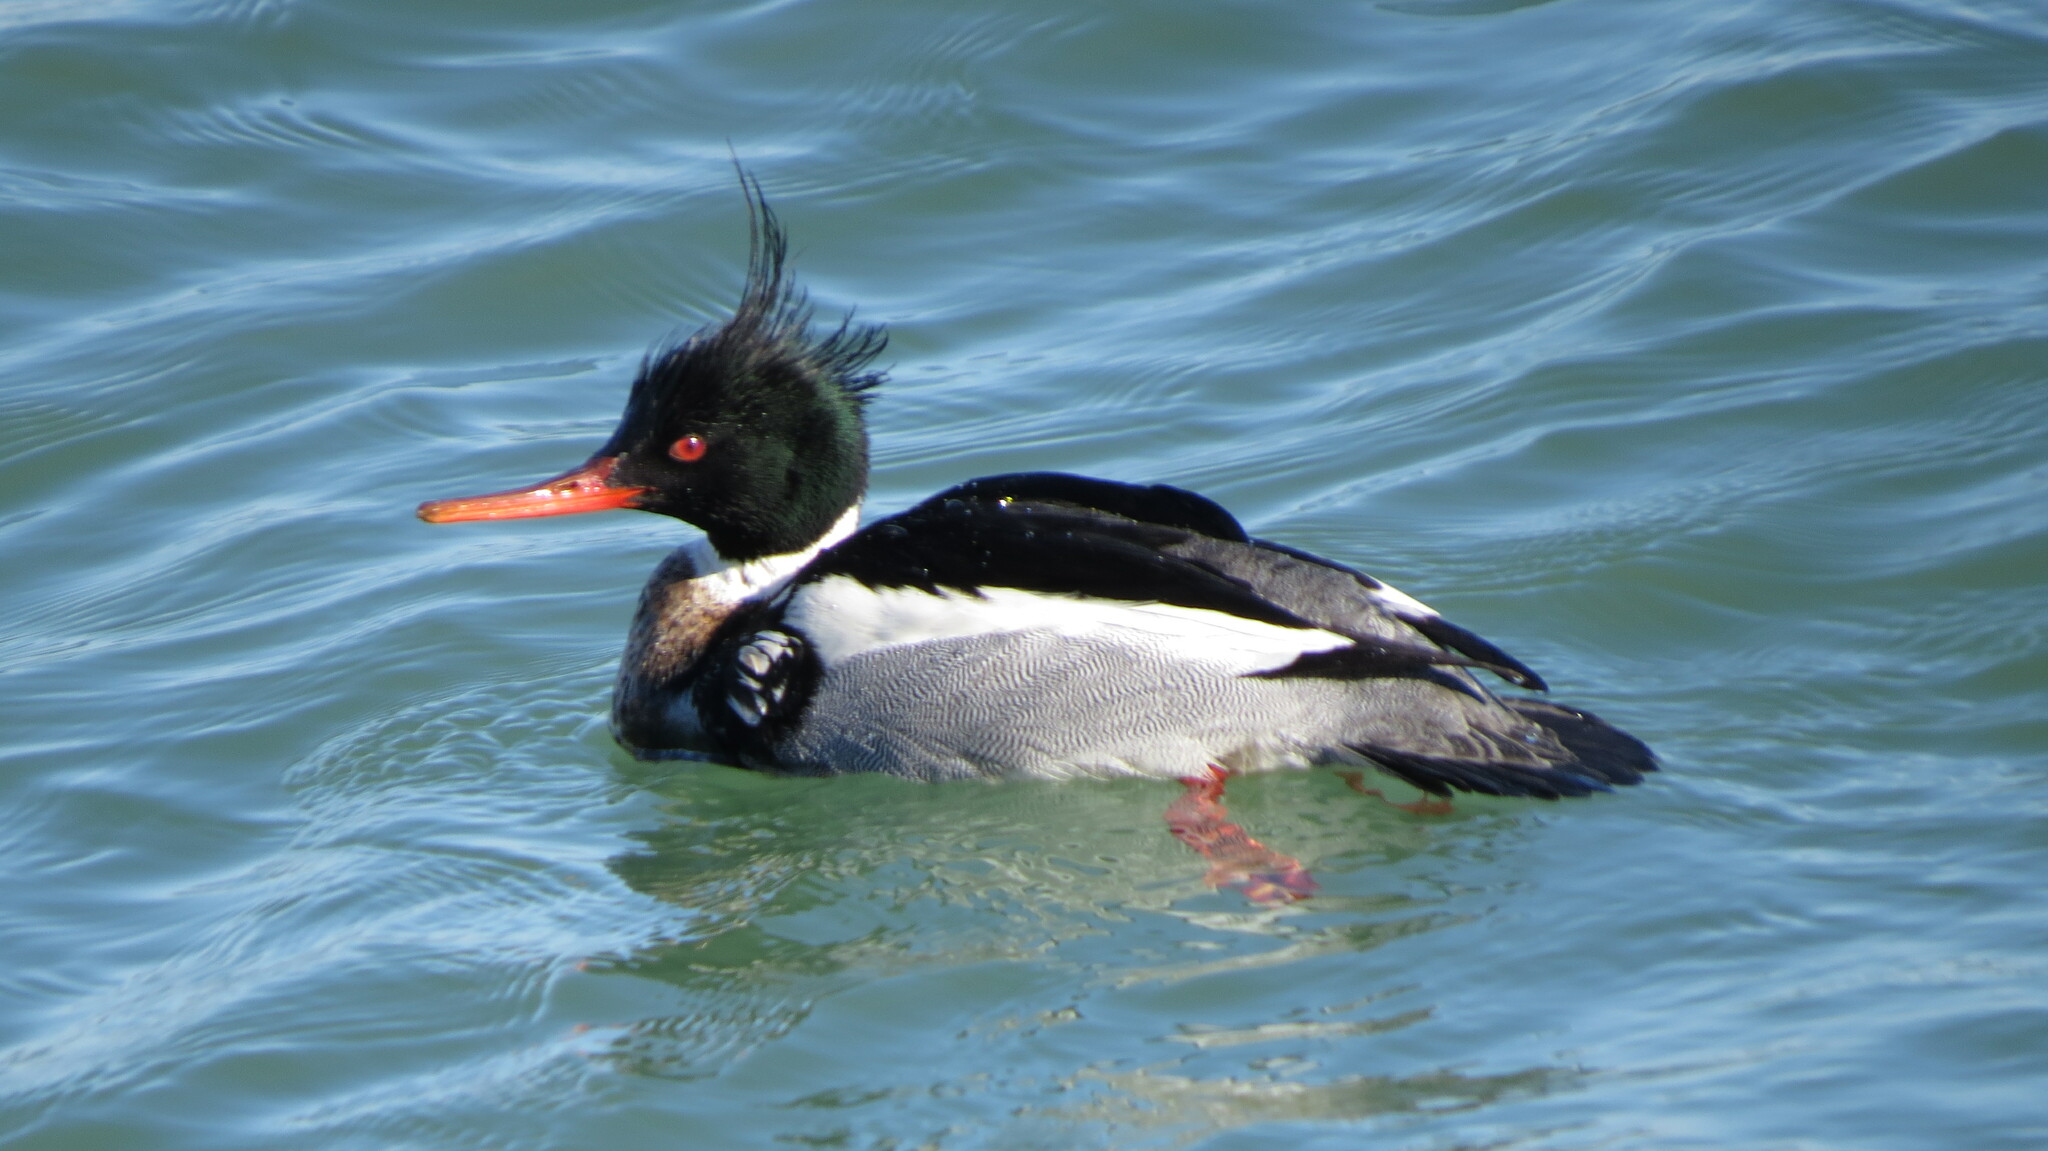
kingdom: Animalia
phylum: Chordata
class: Aves
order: Anseriformes
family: Anatidae
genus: Mergus
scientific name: Mergus serrator
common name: Red-breasted merganser
